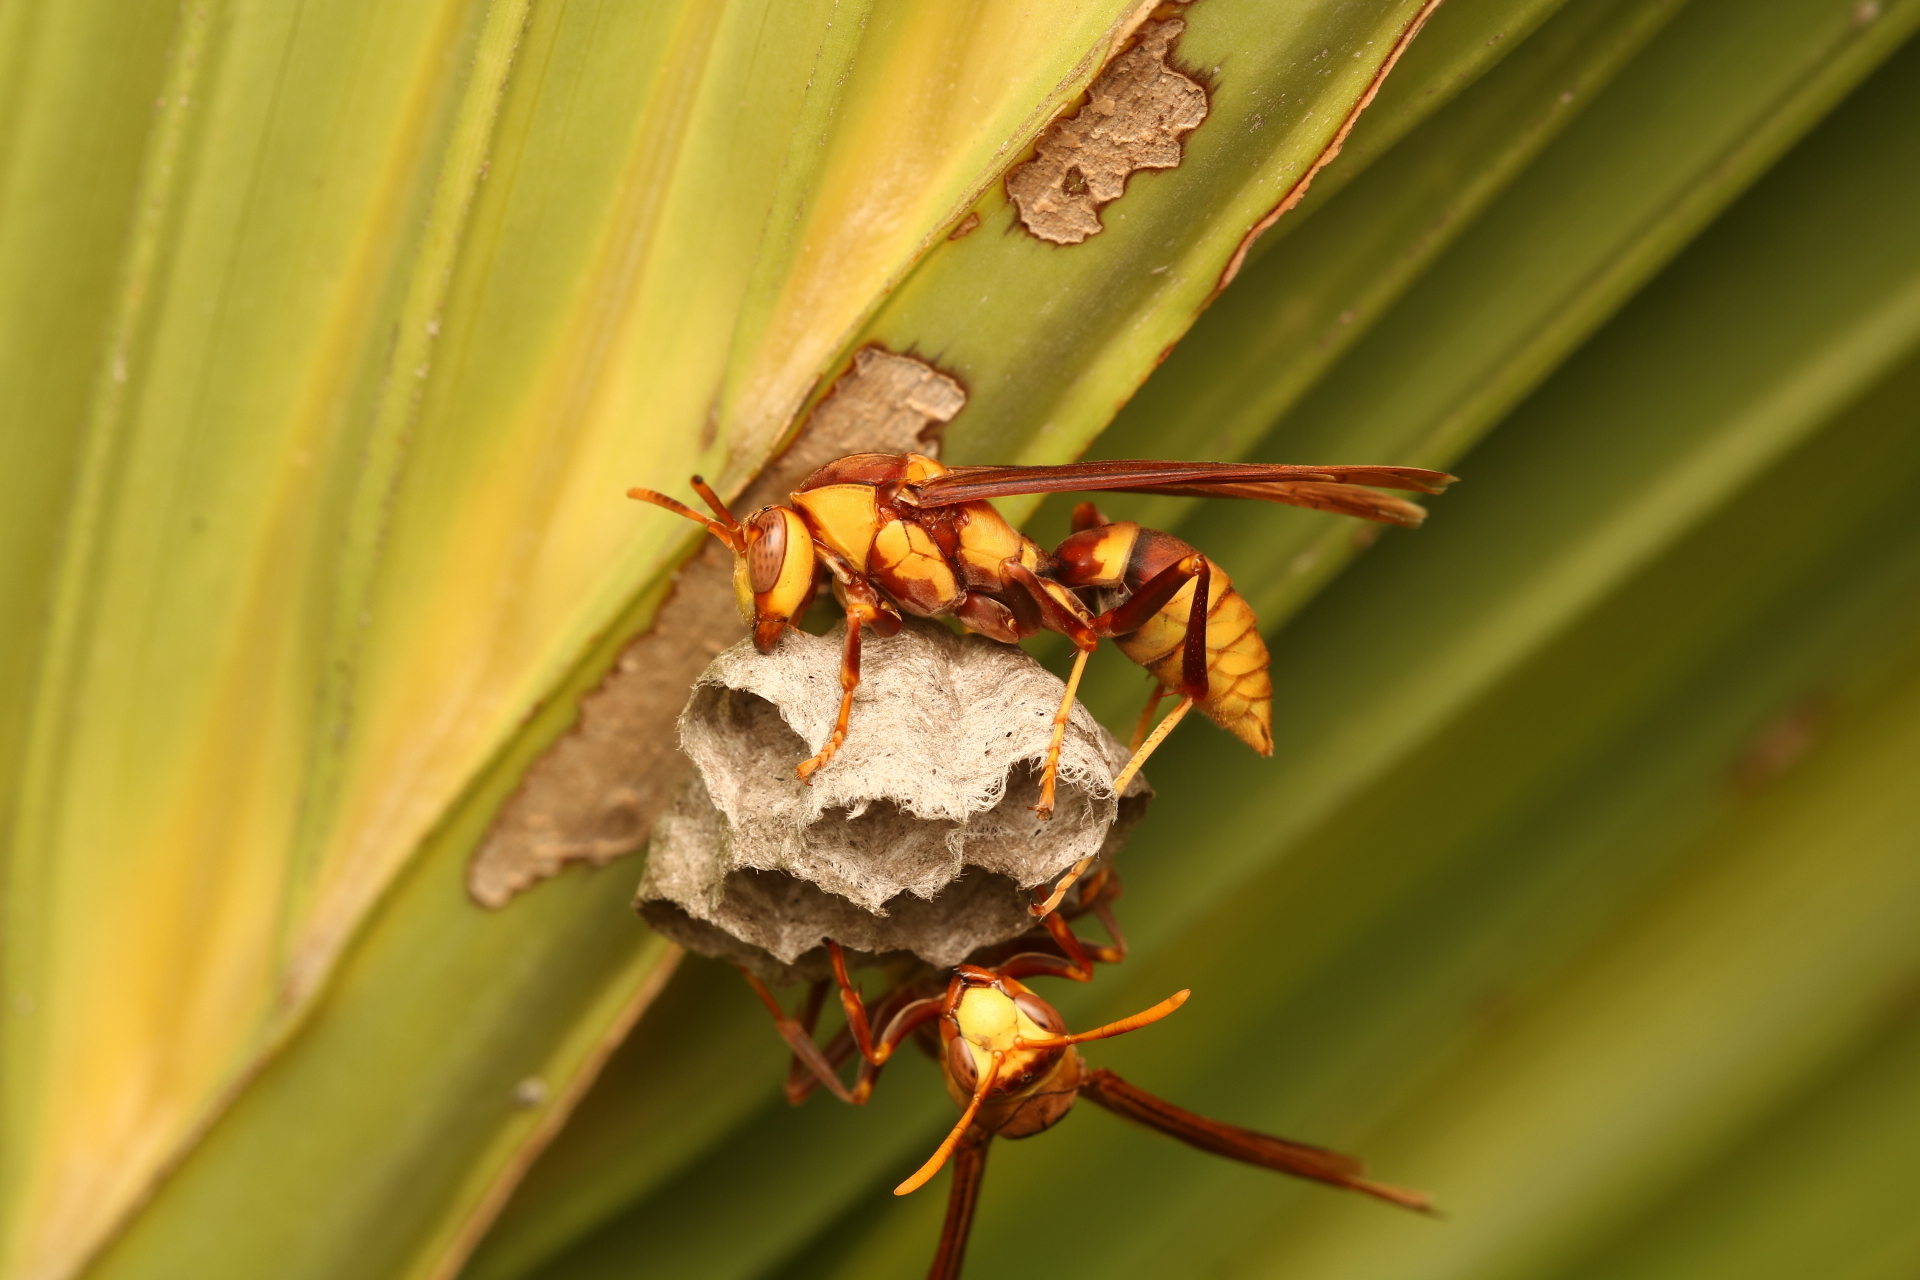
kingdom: Animalia
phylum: Arthropoda
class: Insecta
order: Hymenoptera
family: Eumenidae
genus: Polistes
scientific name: Polistes major
